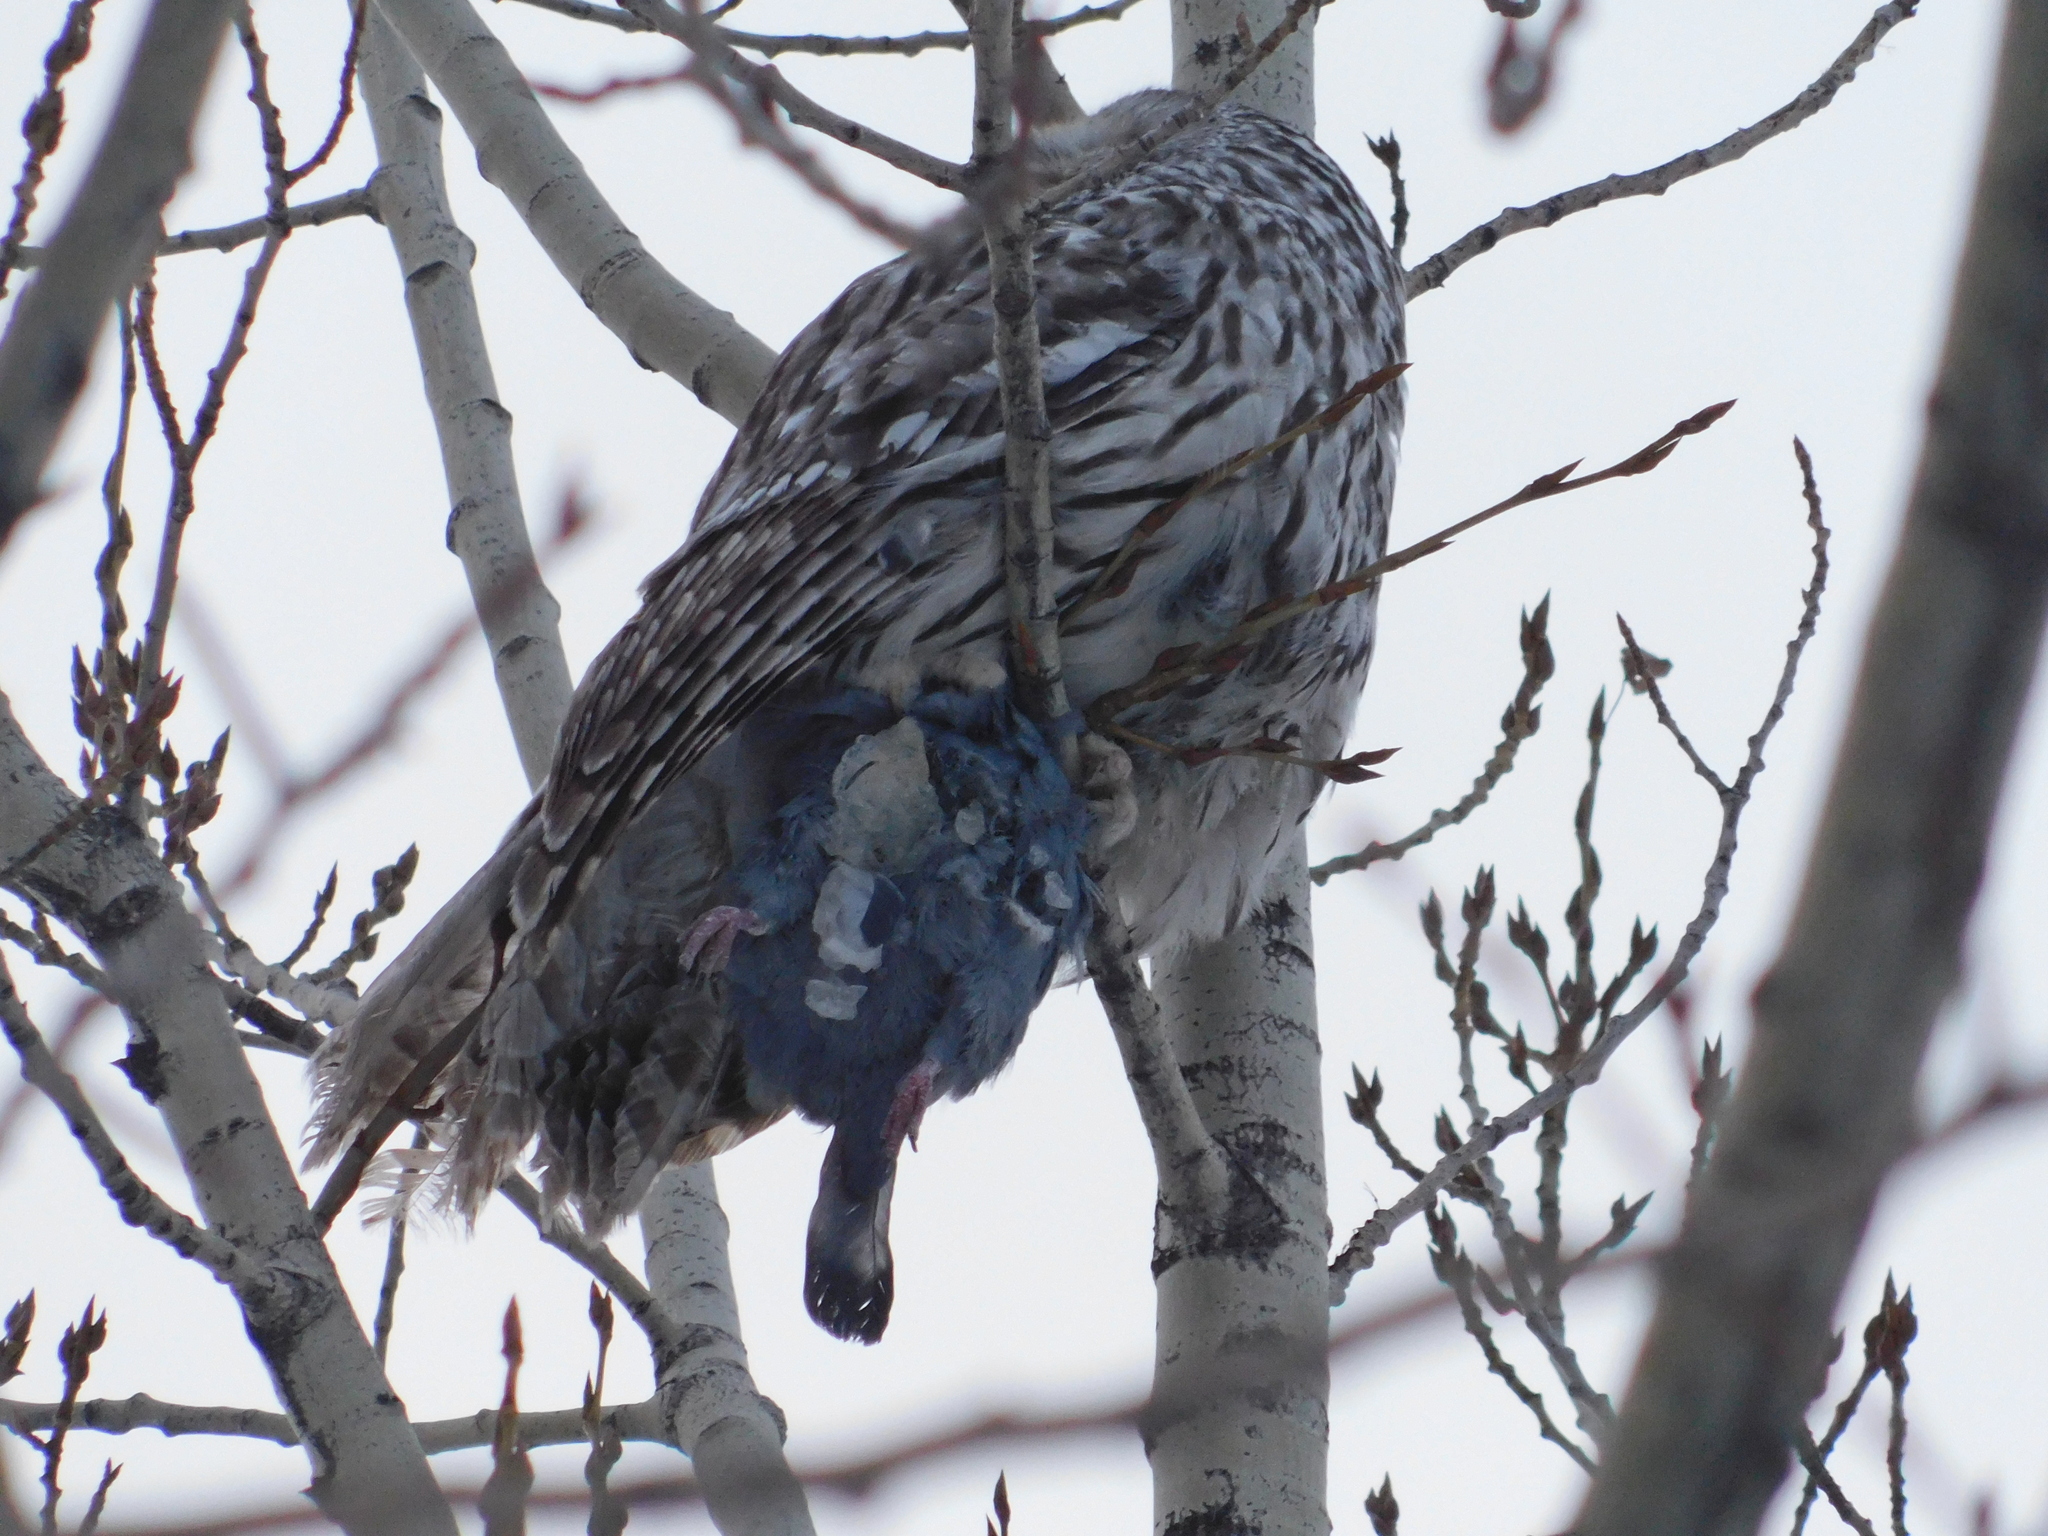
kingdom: Animalia
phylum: Chordata
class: Aves
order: Columbiformes
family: Columbidae
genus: Columba
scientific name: Columba livia
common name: Rock pigeon
